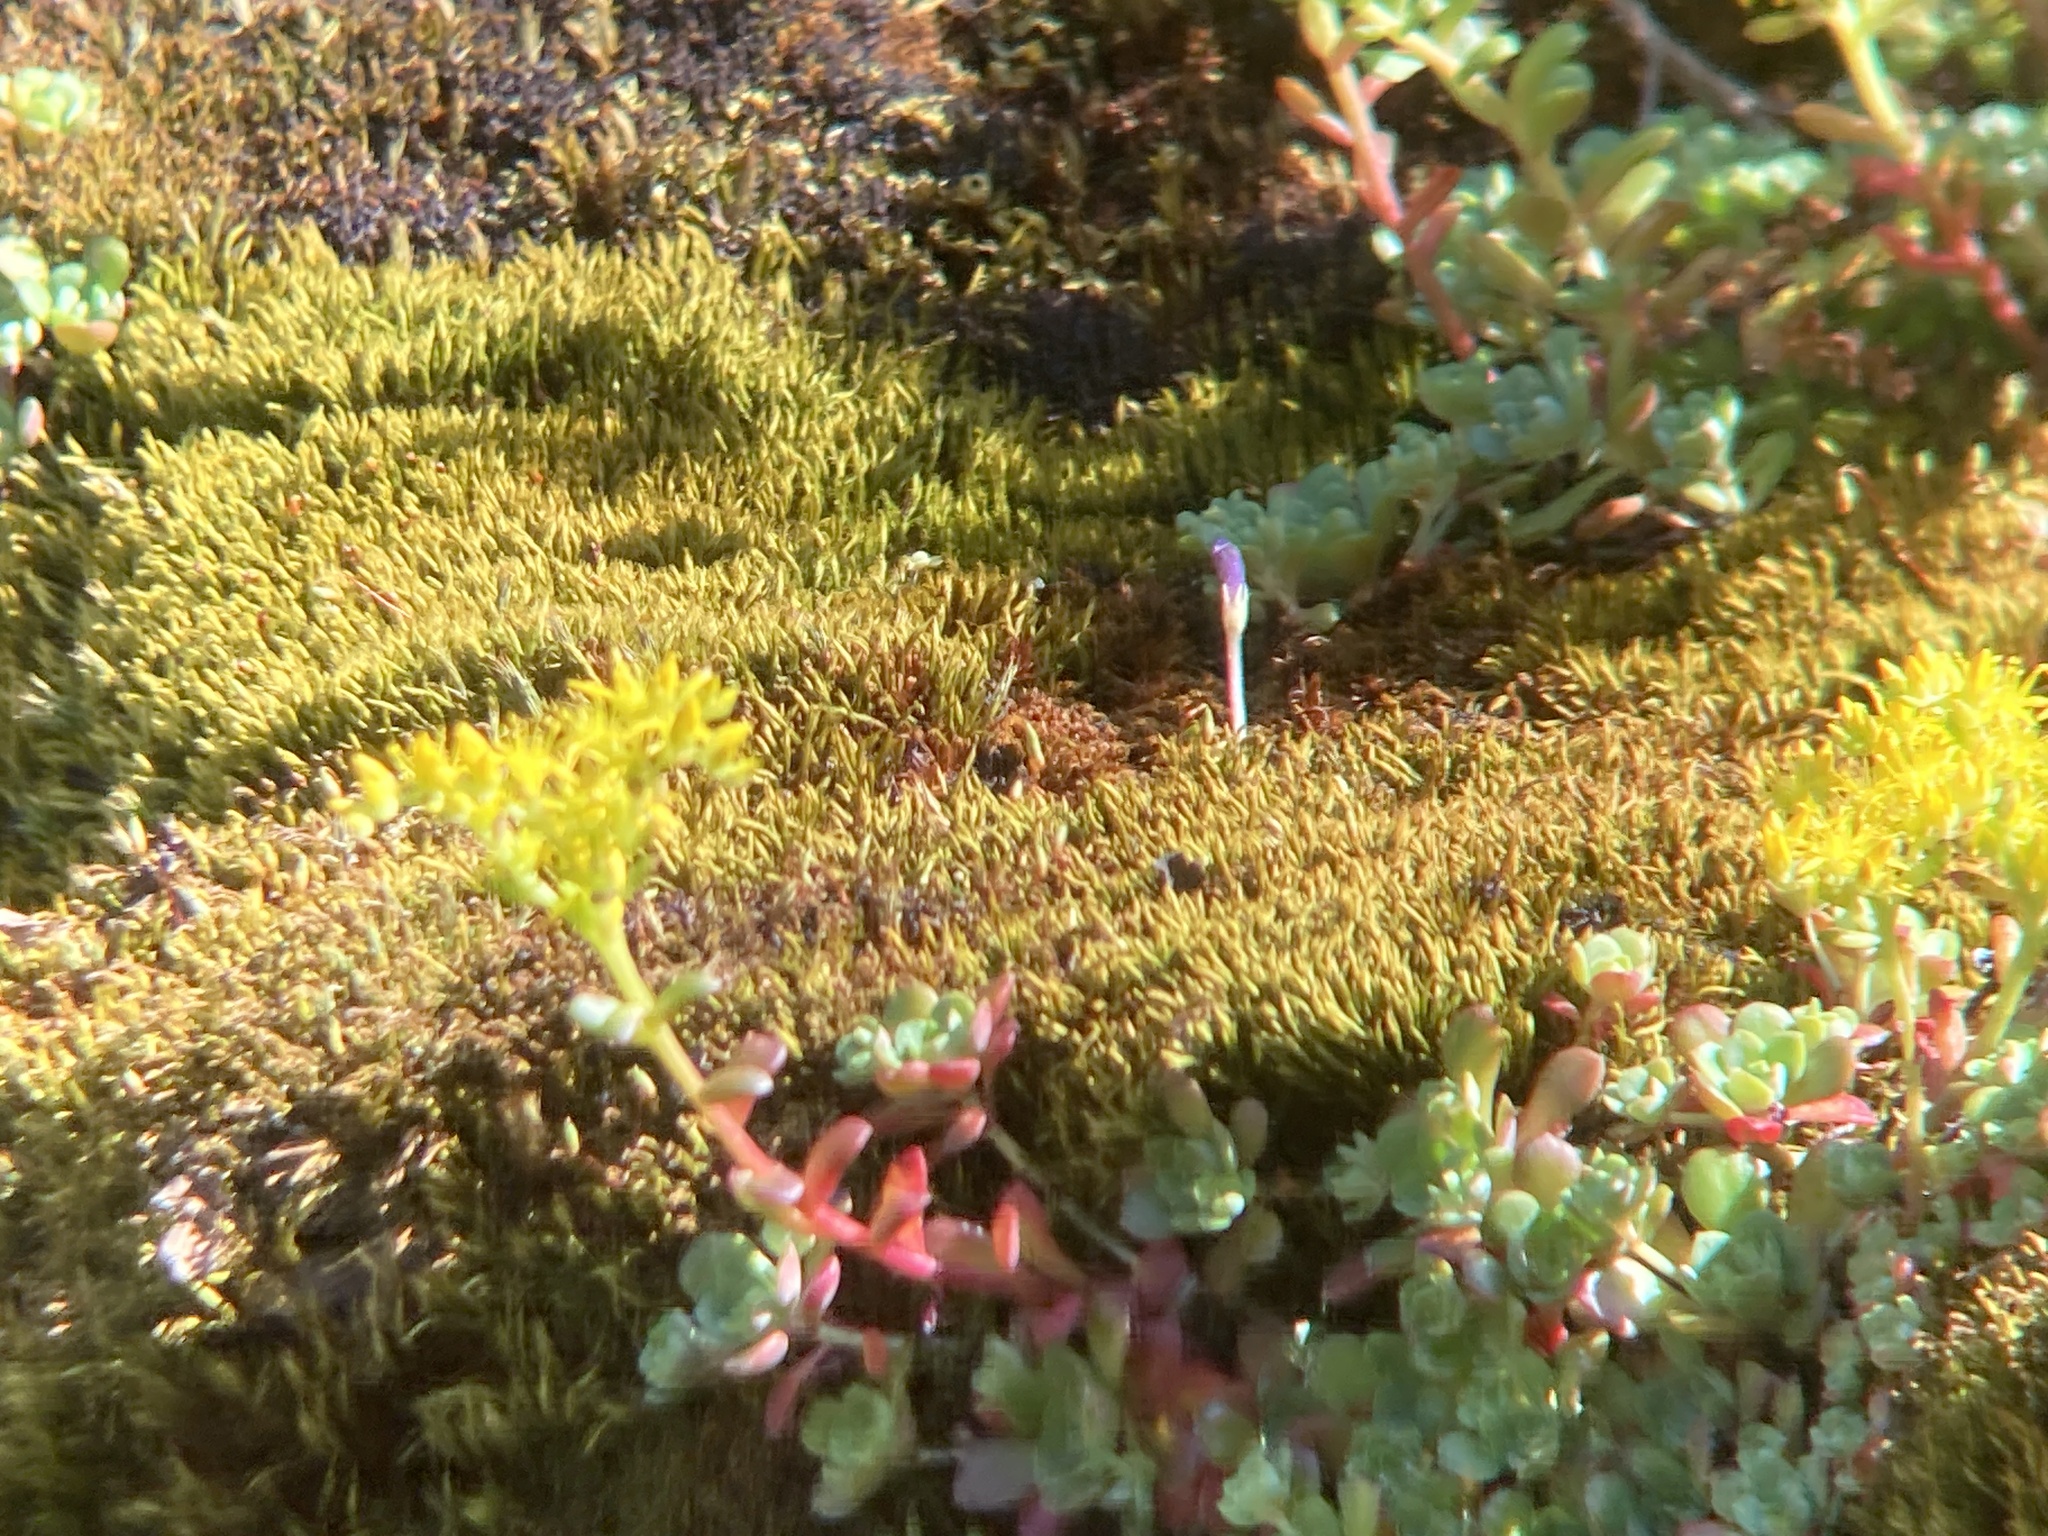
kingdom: Plantae
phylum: Tracheophyta
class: Magnoliopsida
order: Saxifragales
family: Crassulaceae
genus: Sedum
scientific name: Sedum spathulifolium
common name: Colorado stonecrop
